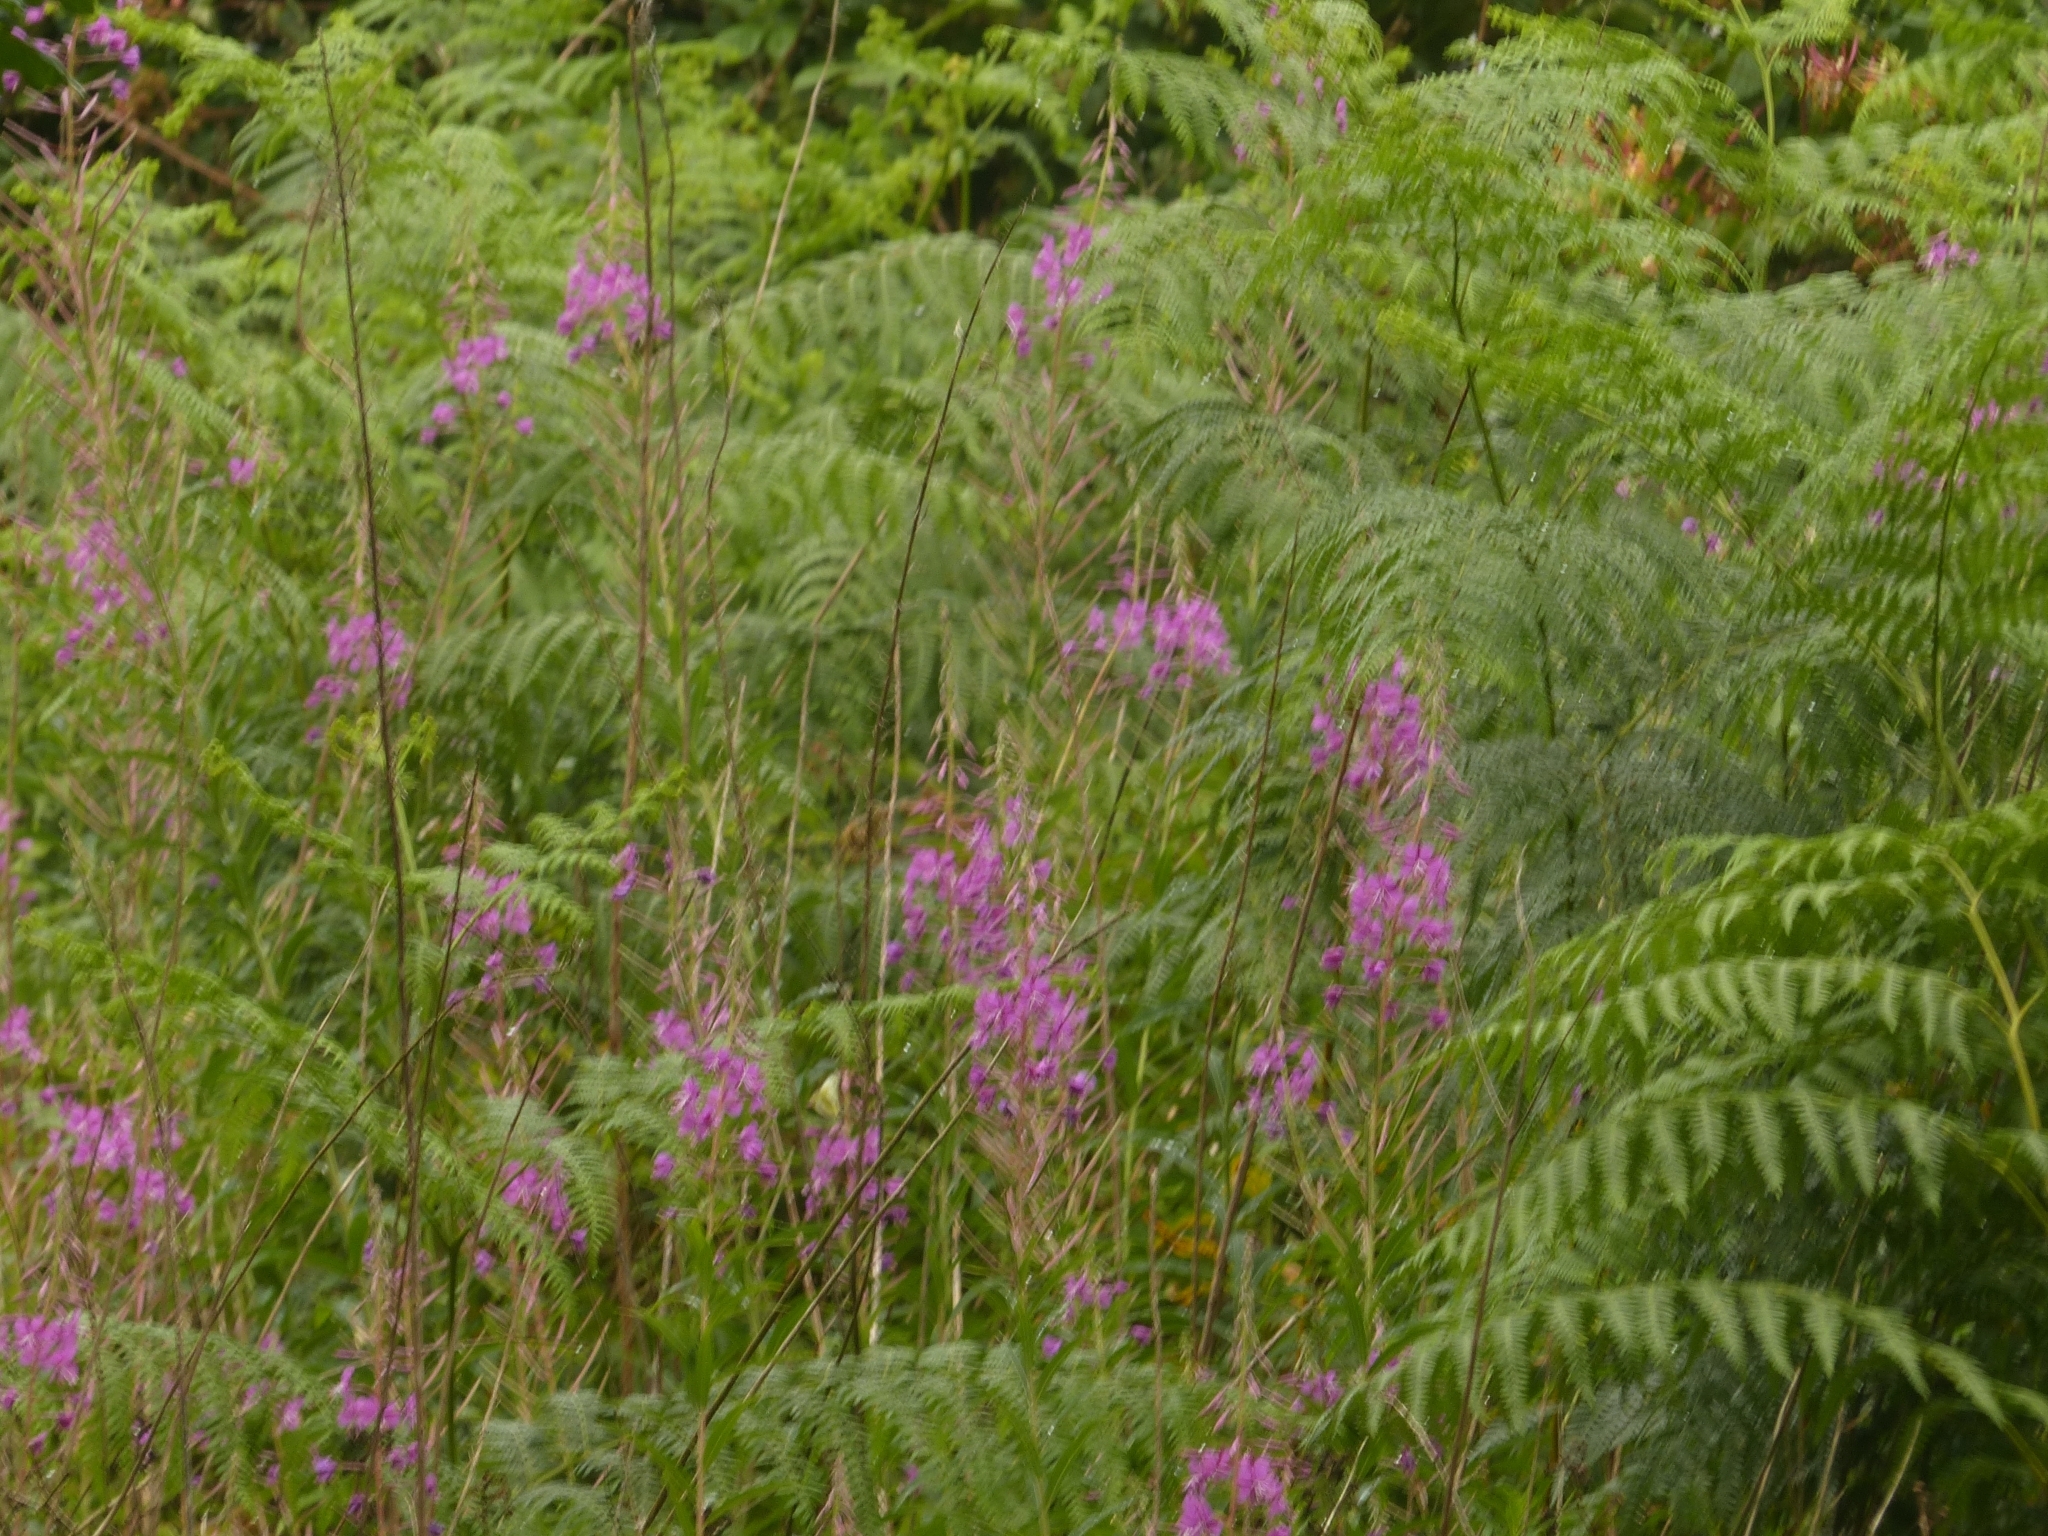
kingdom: Plantae
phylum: Tracheophyta
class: Magnoliopsida
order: Myrtales
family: Onagraceae
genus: Chamaenerion
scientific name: Chamaenerion angustifolium
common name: Fireweed
